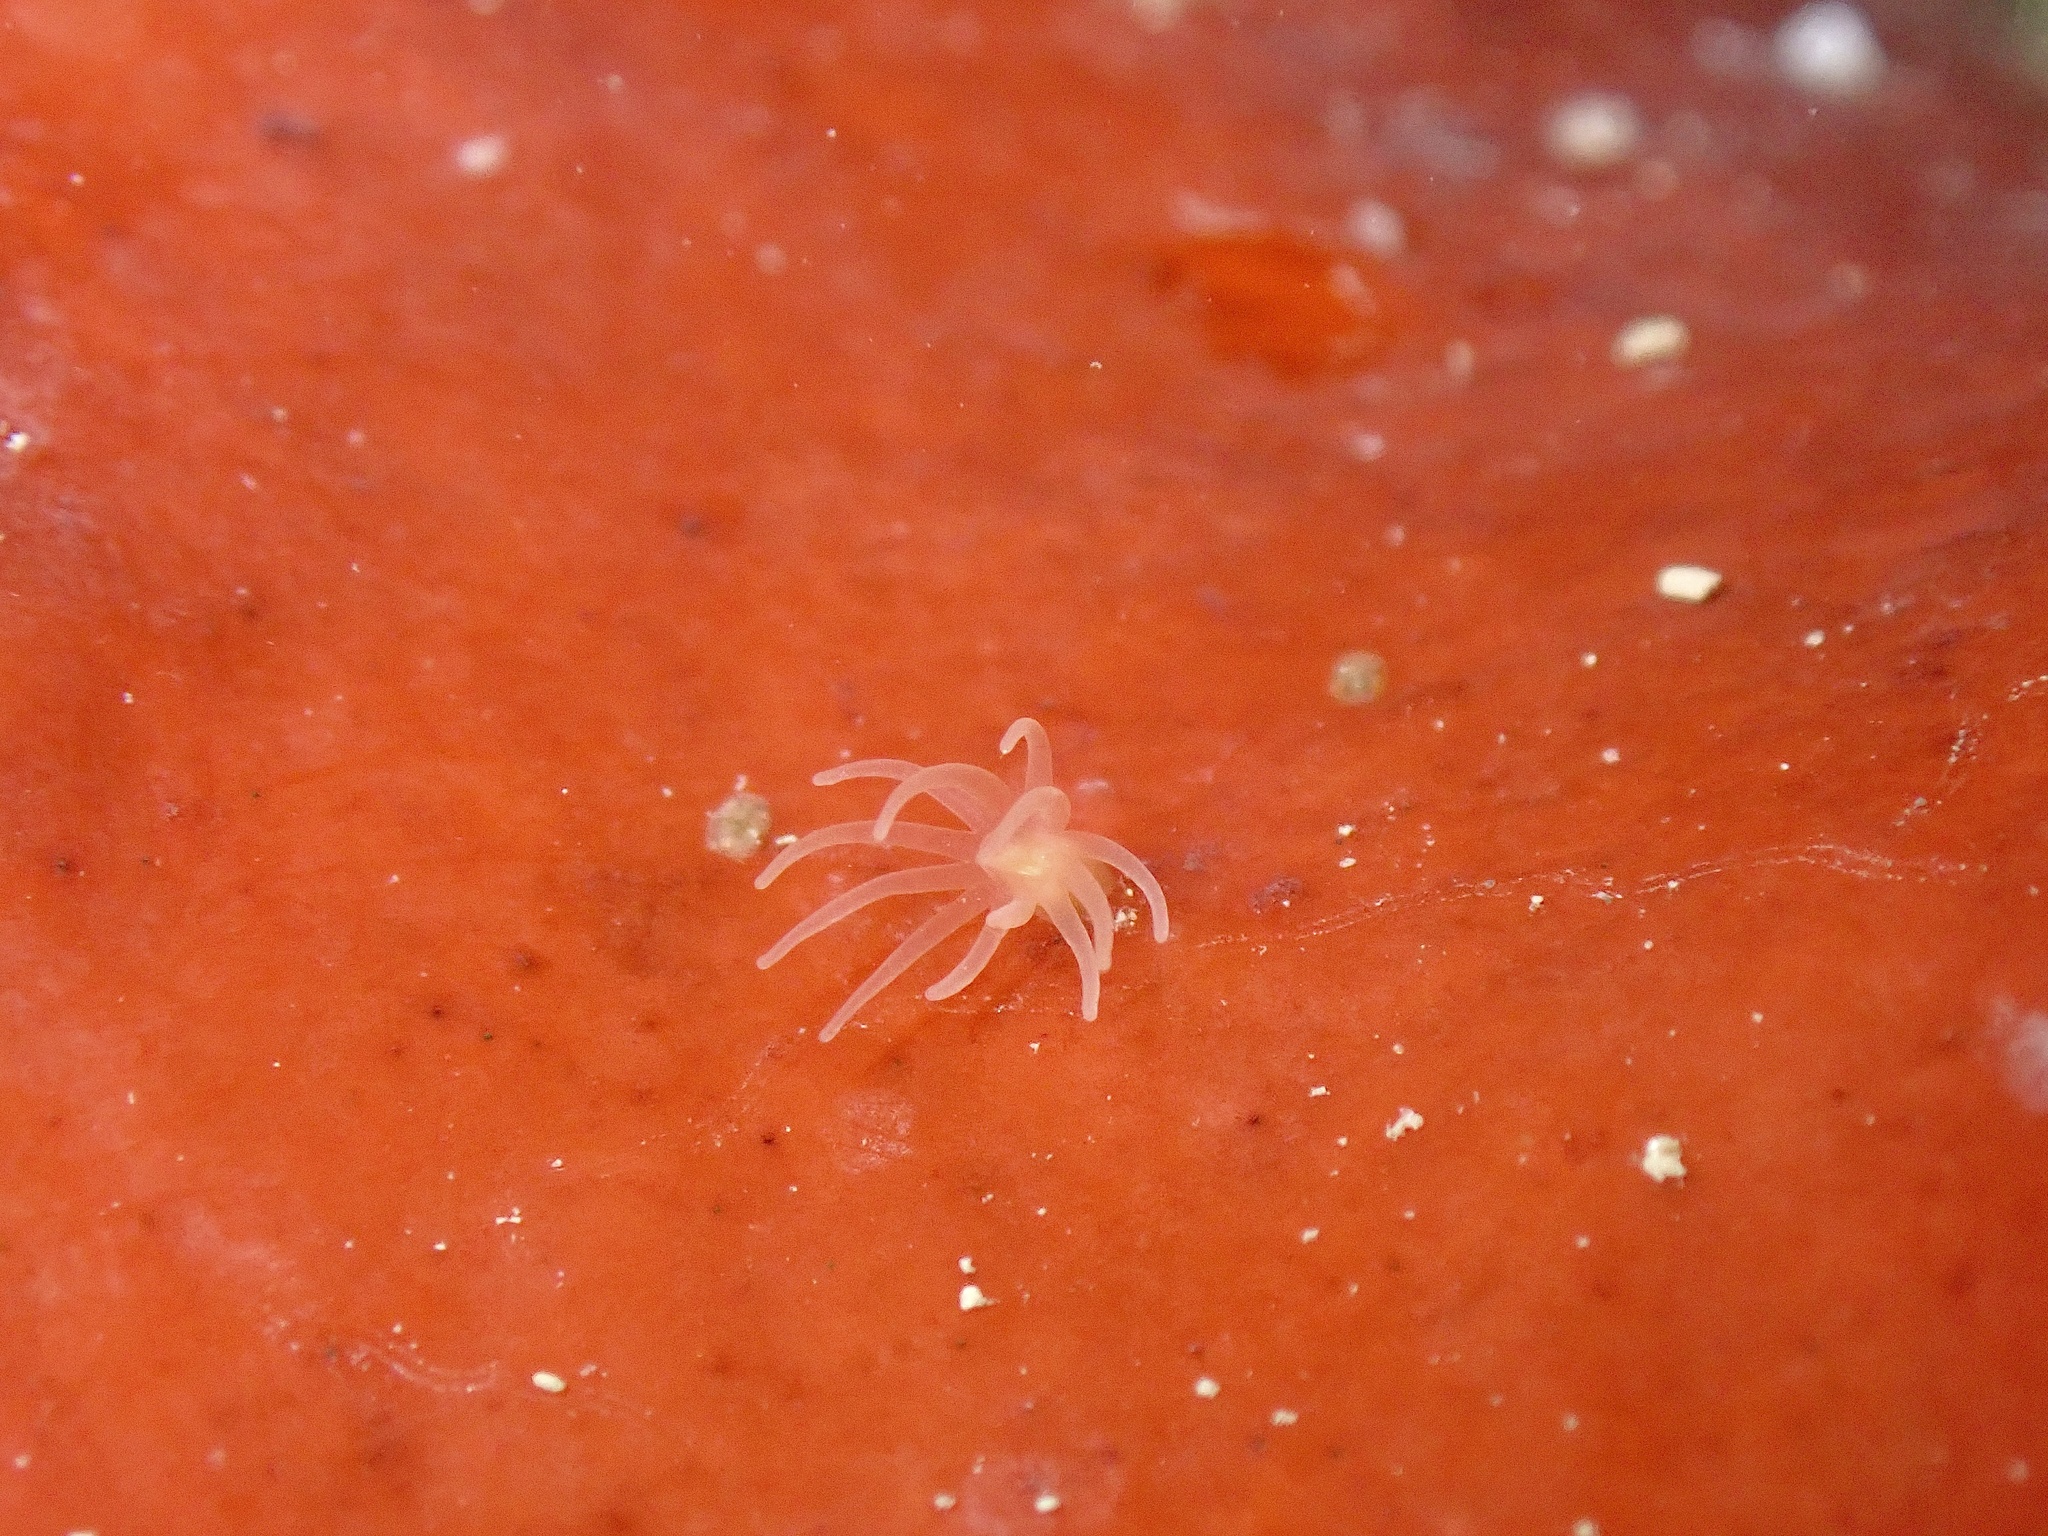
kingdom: Animalia
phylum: Cnidaria
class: Anthozoa
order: Actiniaria
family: Gonactiniidae
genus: Gonactinia
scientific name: Gonactinia prolifera
